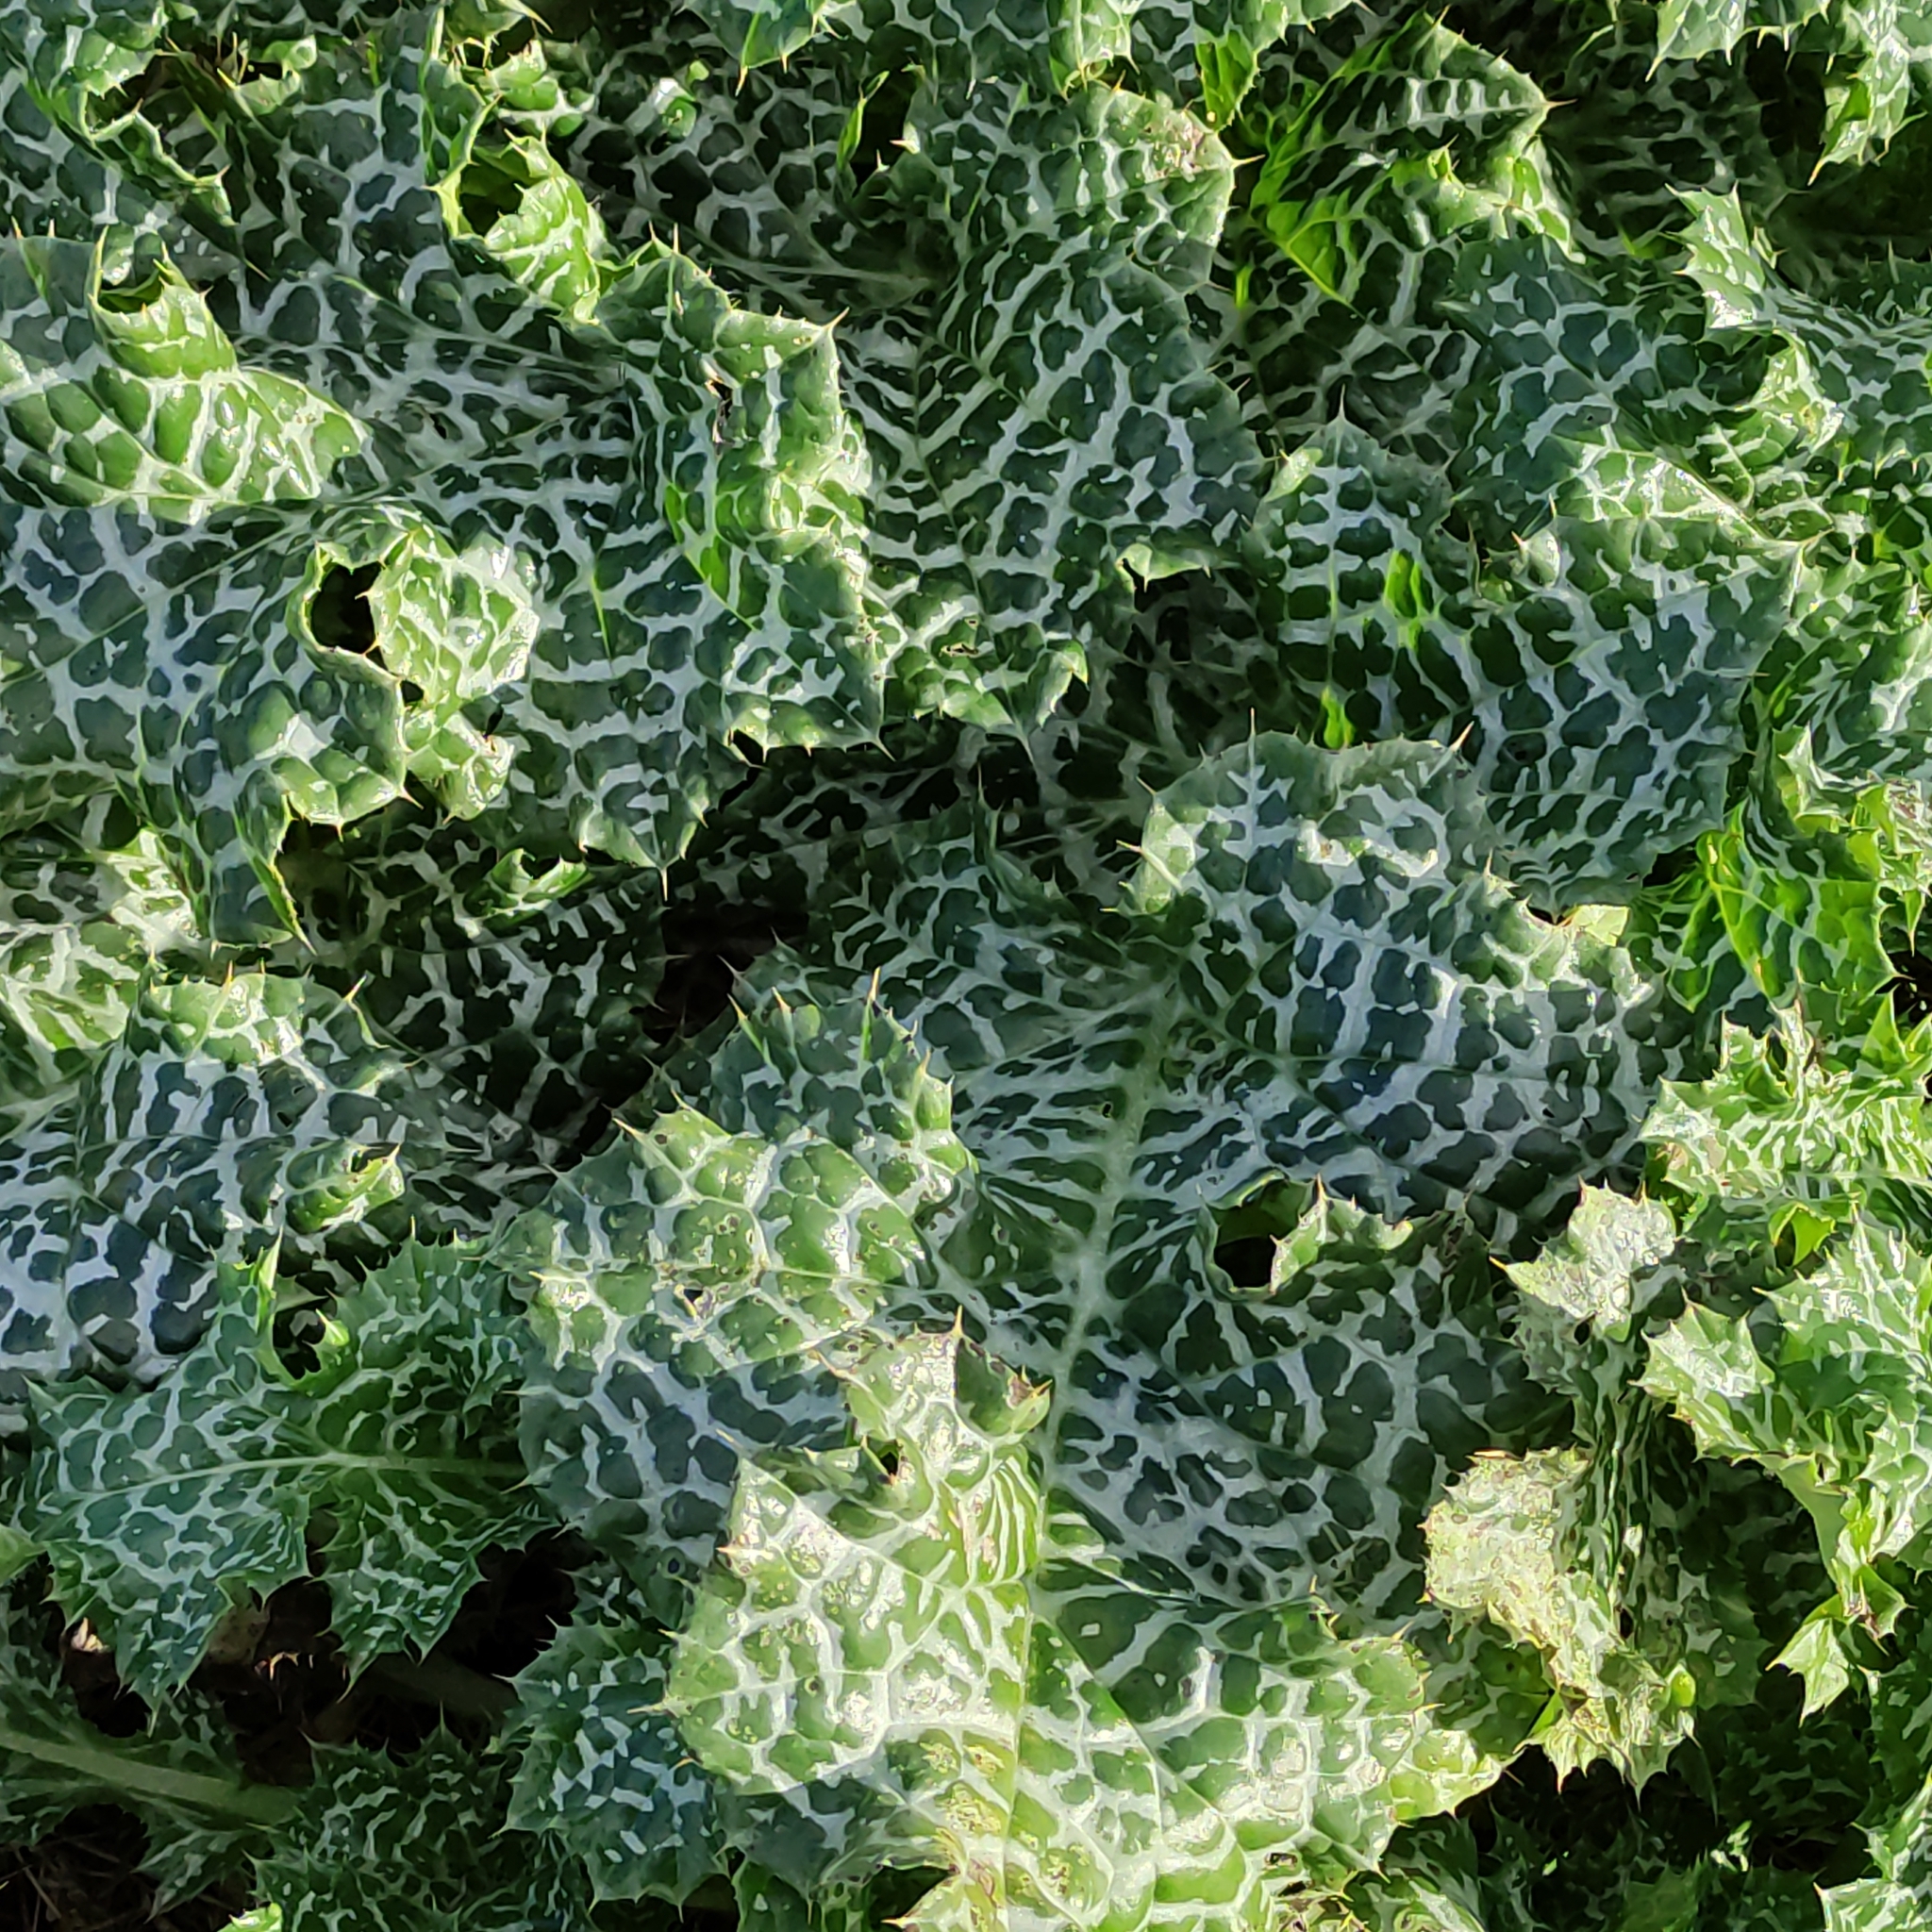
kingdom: Plantae
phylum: Tracheophyta
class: Magnoliopsida
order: Asterales
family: Asteraceae
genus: Silybum
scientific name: Silybum marianum
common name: Milk thistle
